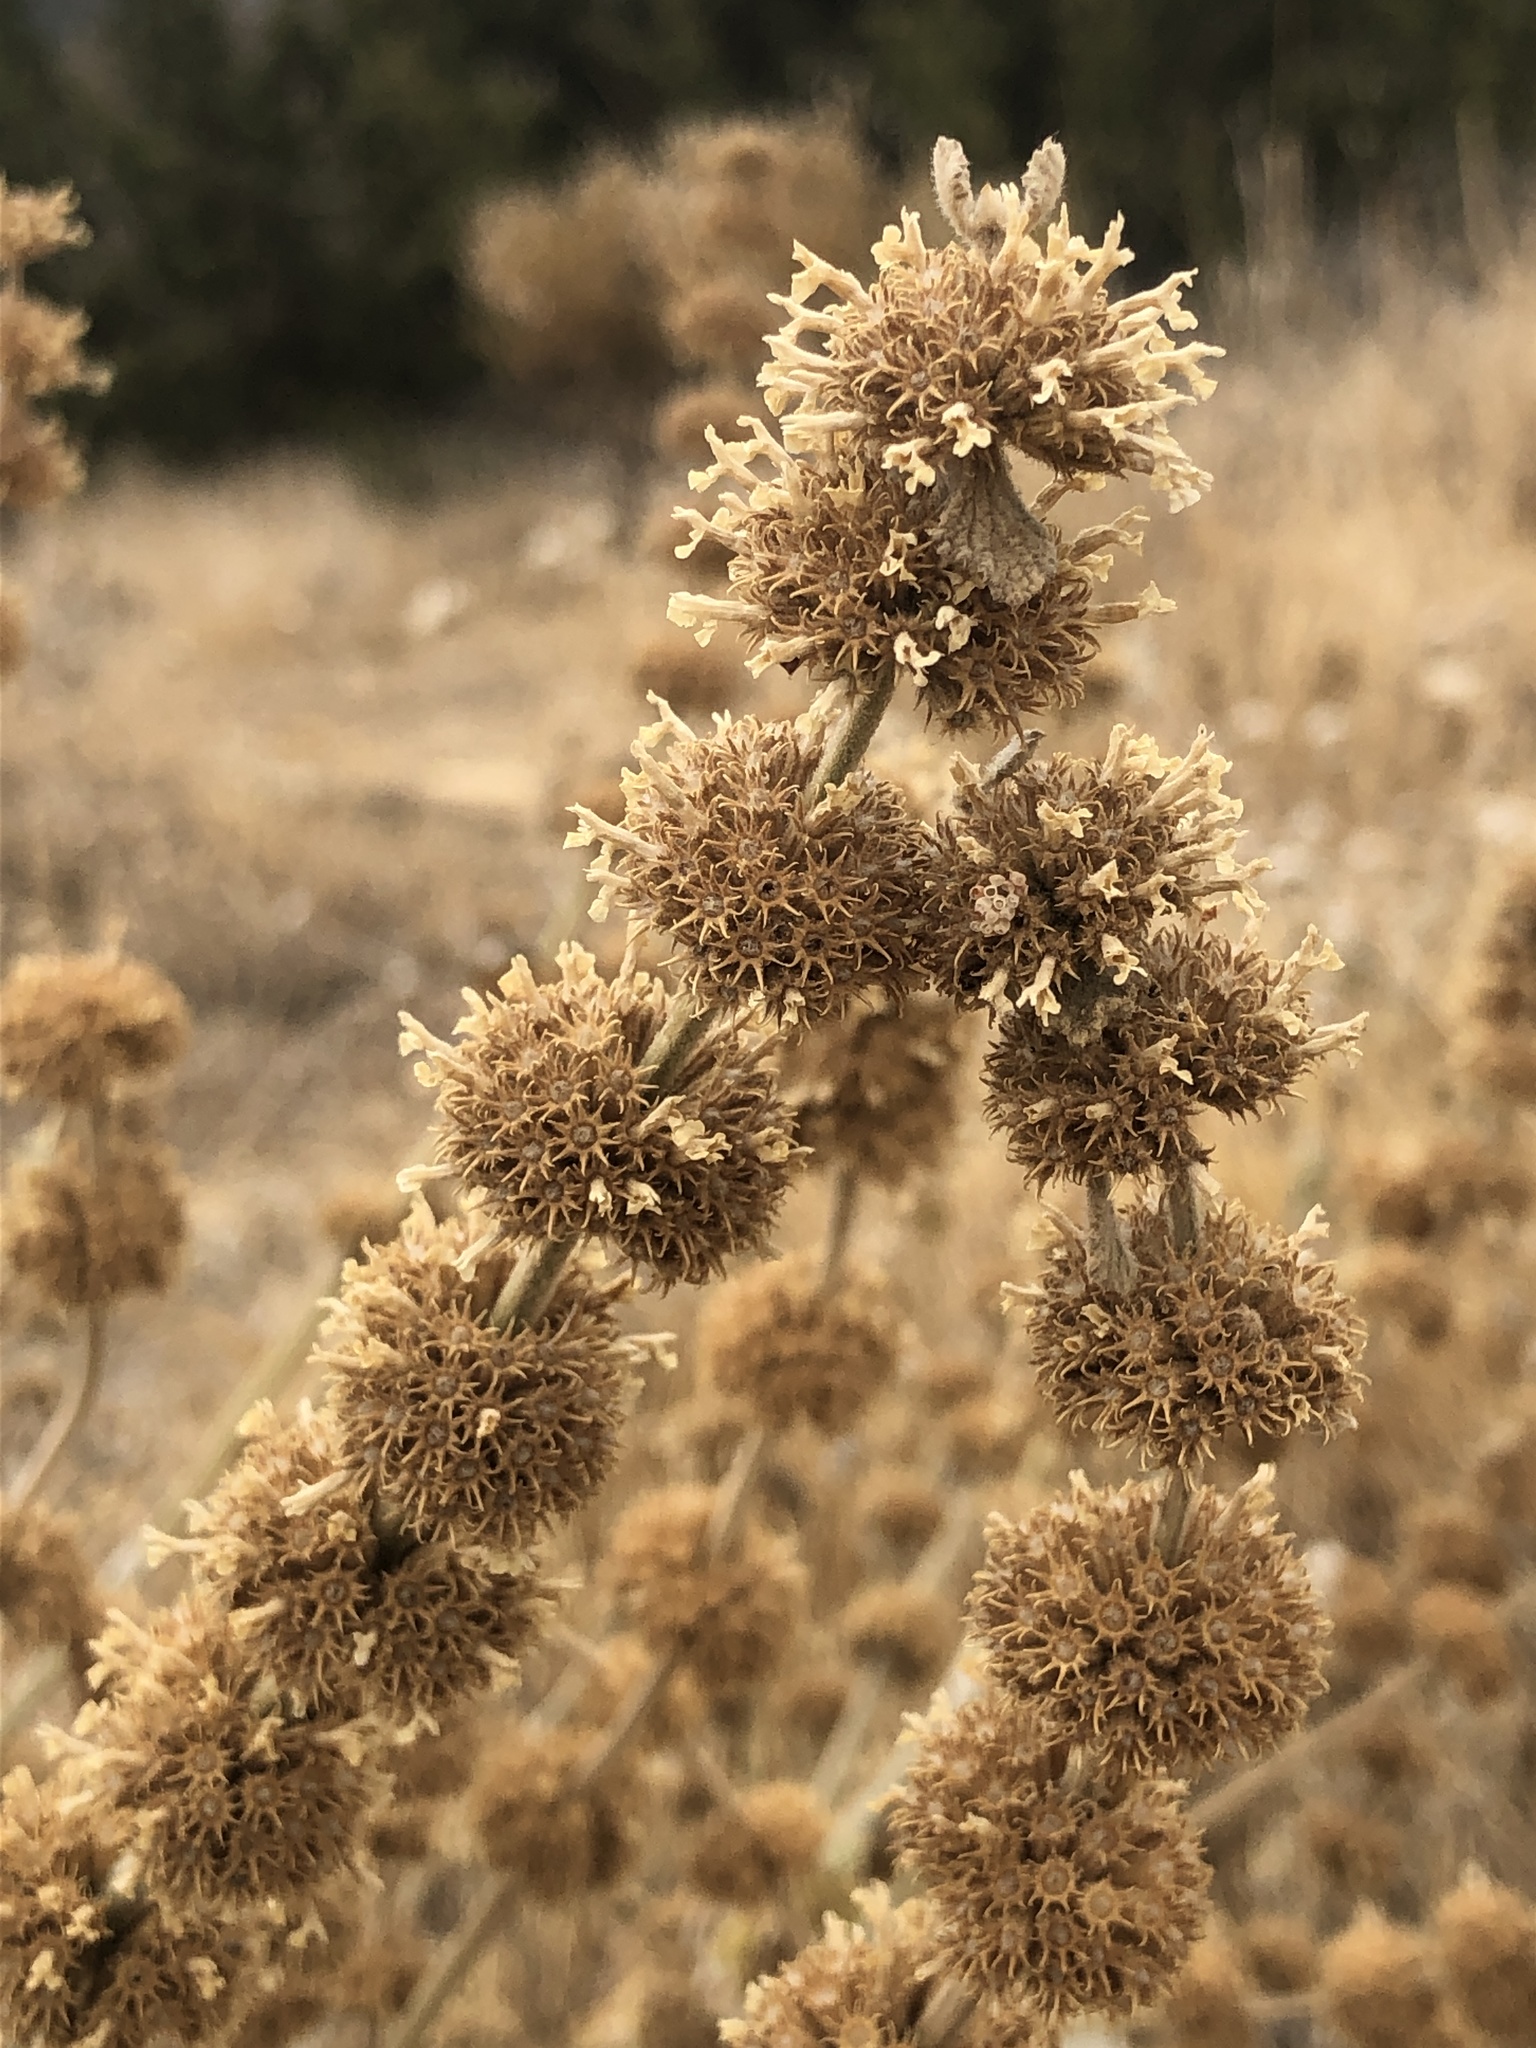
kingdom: Plantae
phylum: Tracheophyta
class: Magnoliopsida
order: Lamiales
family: Lamiaceae
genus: Marrubium
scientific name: Marrubium vulgare
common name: Horehound
